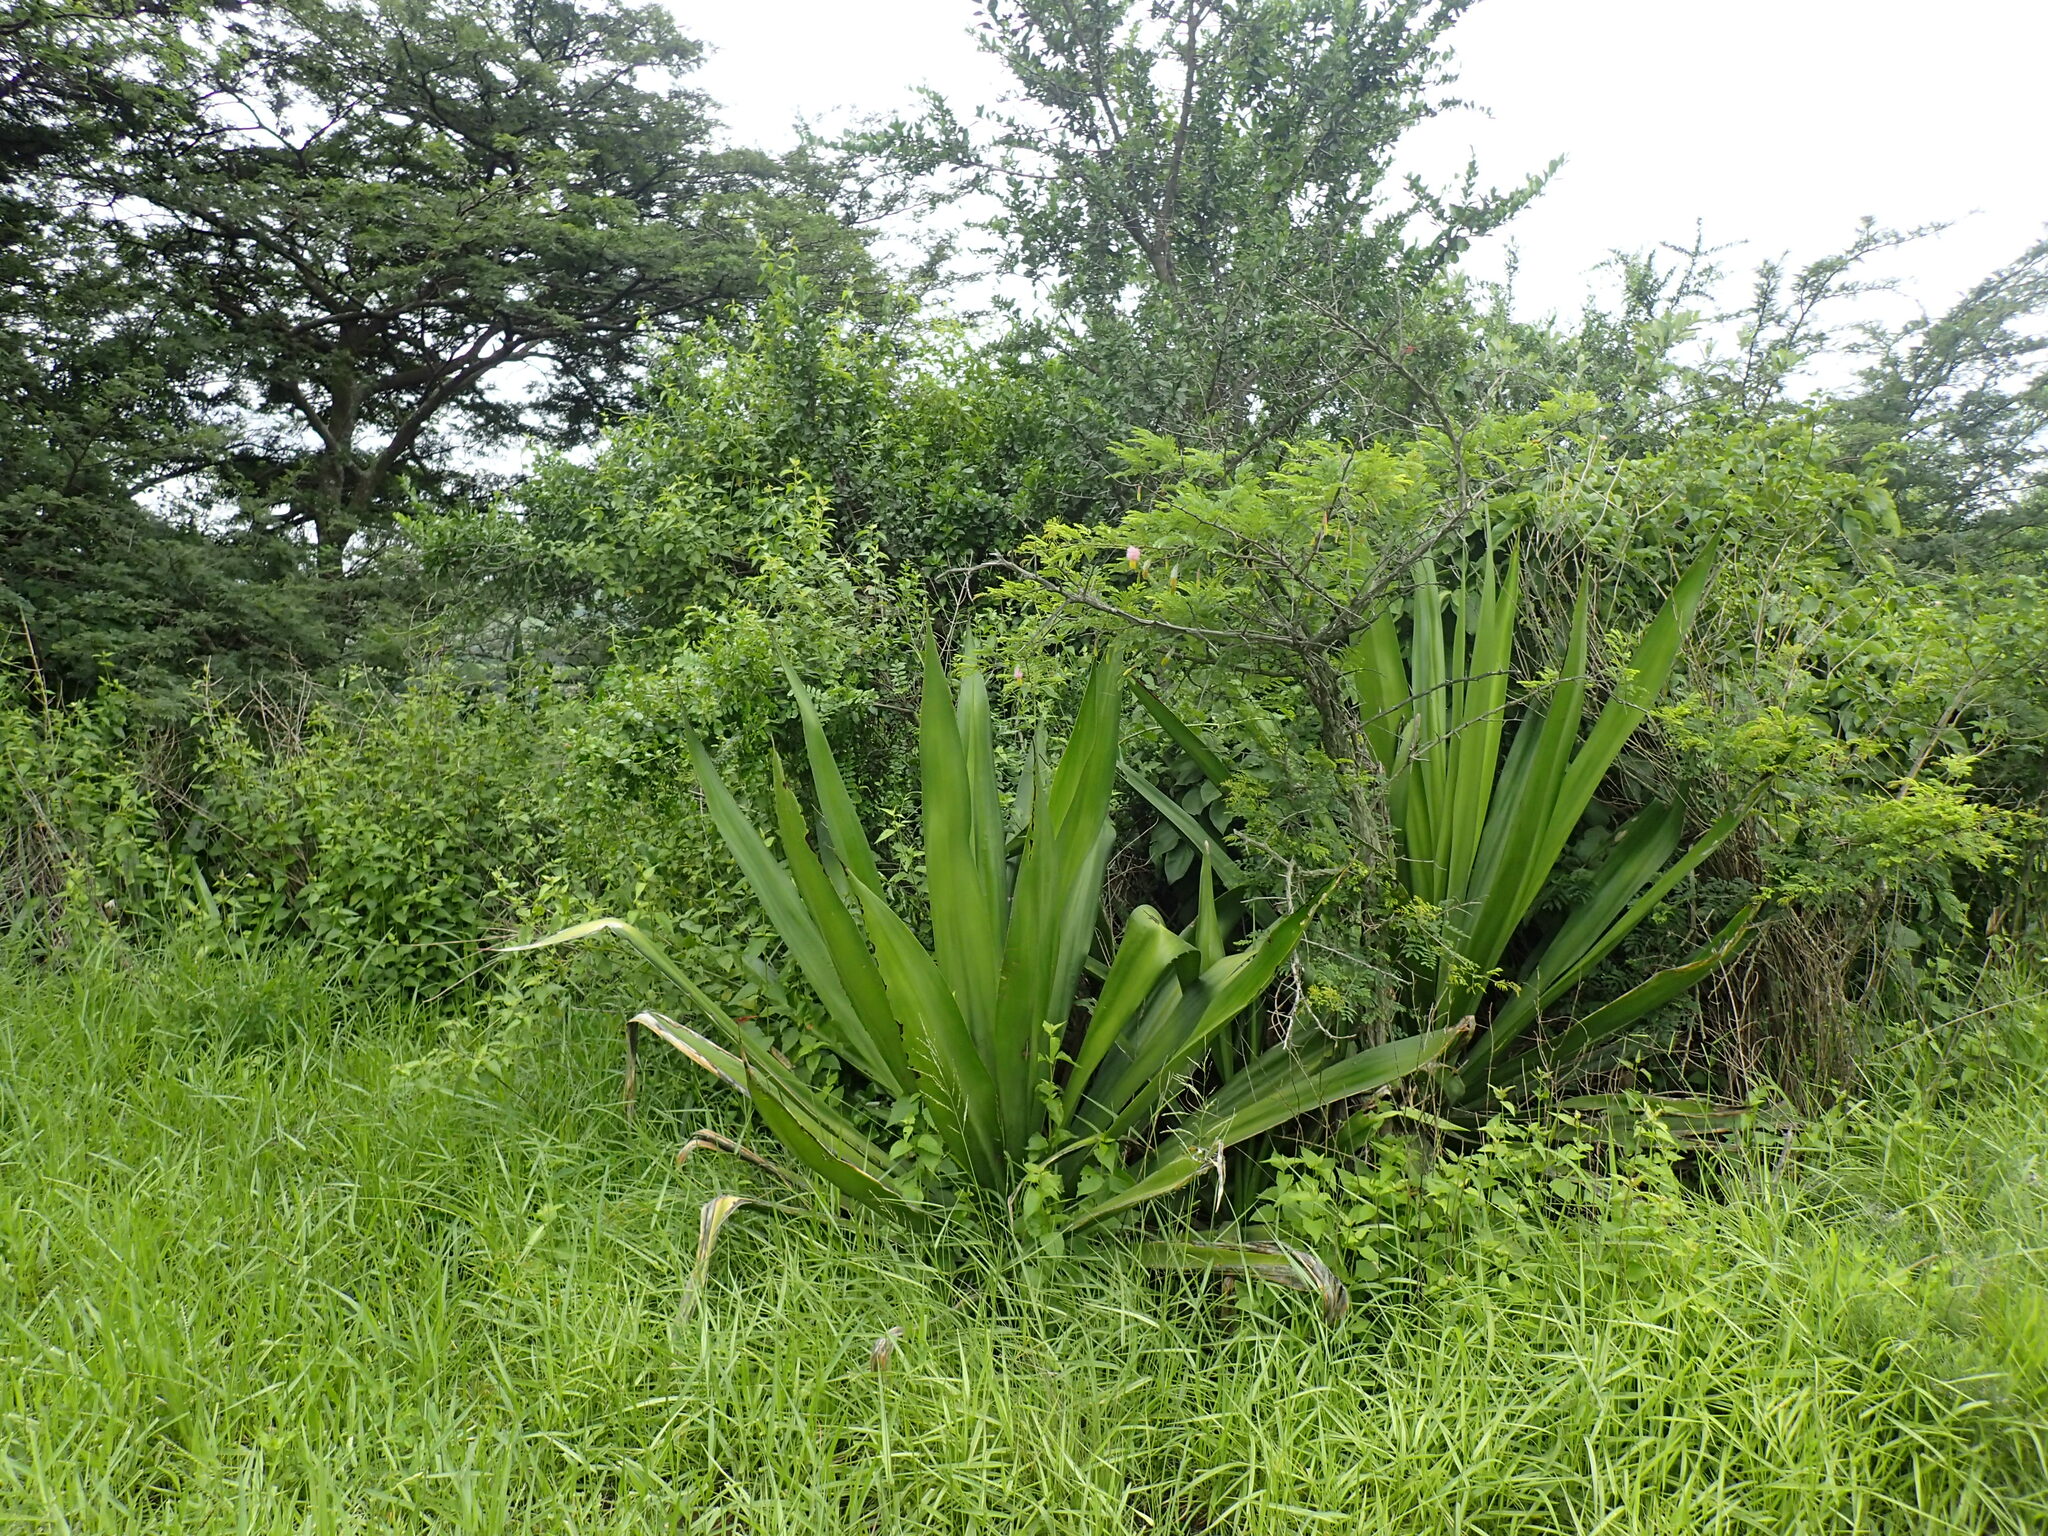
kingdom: Plantae
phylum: Tracheophyta
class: Liliopsida
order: Asparagales
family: Asparagaceae
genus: Furcraea
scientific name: Furcraea foetida
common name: Mauritius hemp
